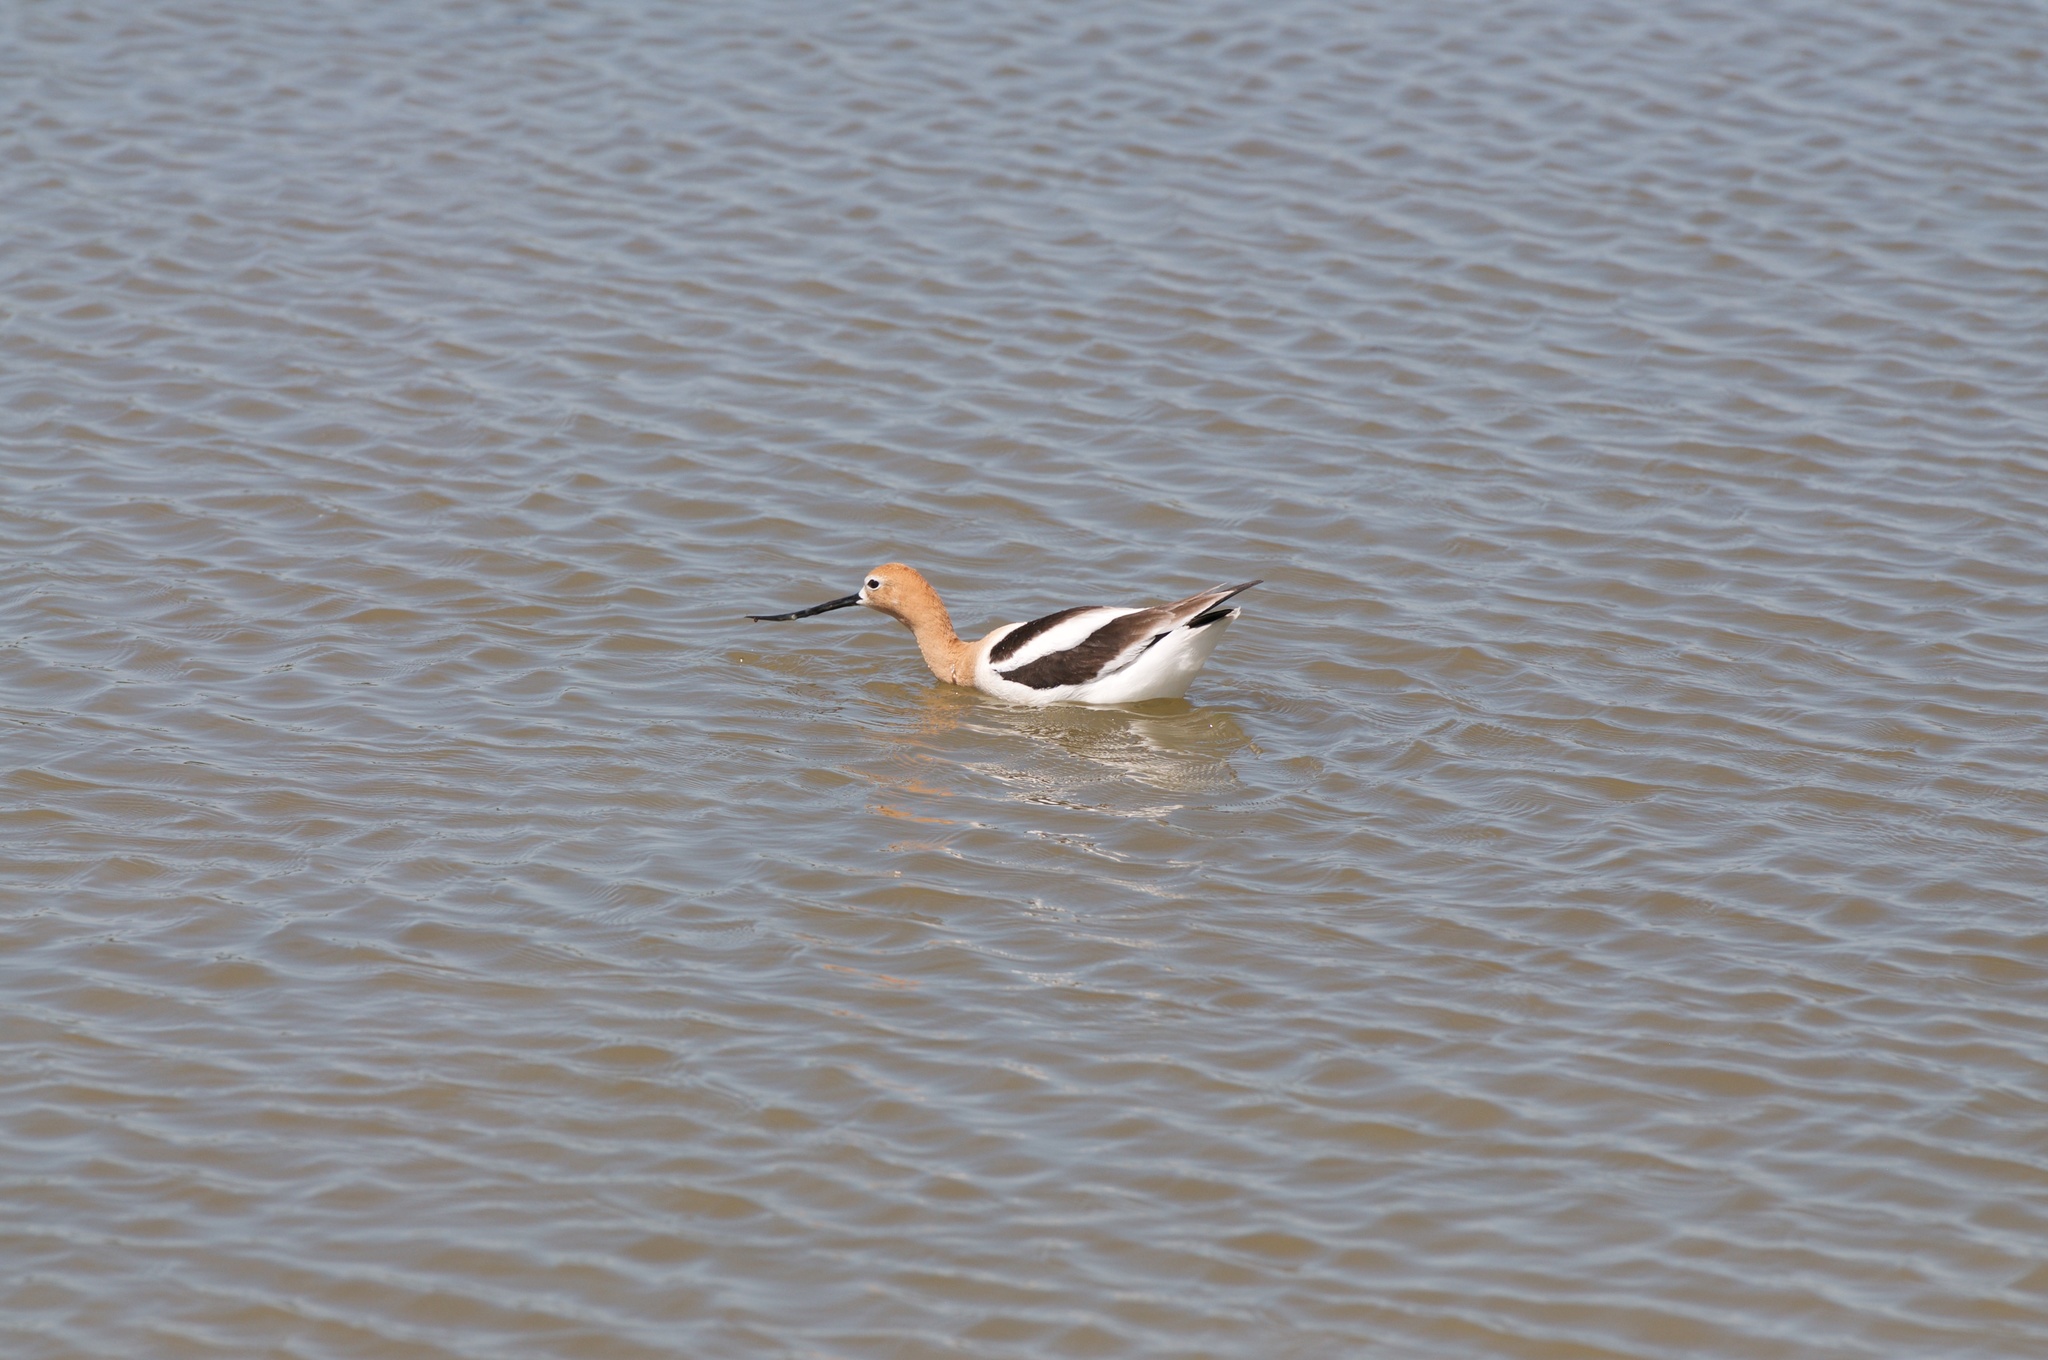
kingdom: Animalia
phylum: Chordata
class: Aves
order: Charadriiformes
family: Recurvirostridae
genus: Recurvirostra
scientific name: Recurvirostra americana
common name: American avocet
